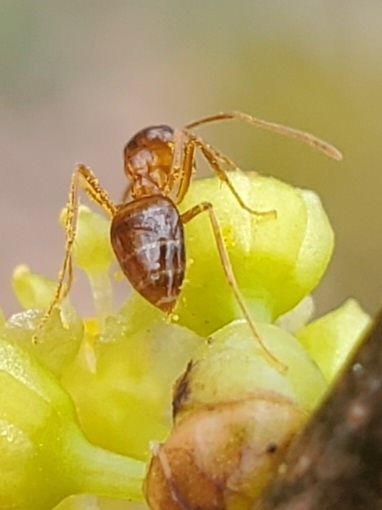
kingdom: Animalia
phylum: Arthropoda
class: Insecta
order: Hymenoptera
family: Formicidae
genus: Prenolepis
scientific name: Prenolepis imparis
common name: Small honey ant
